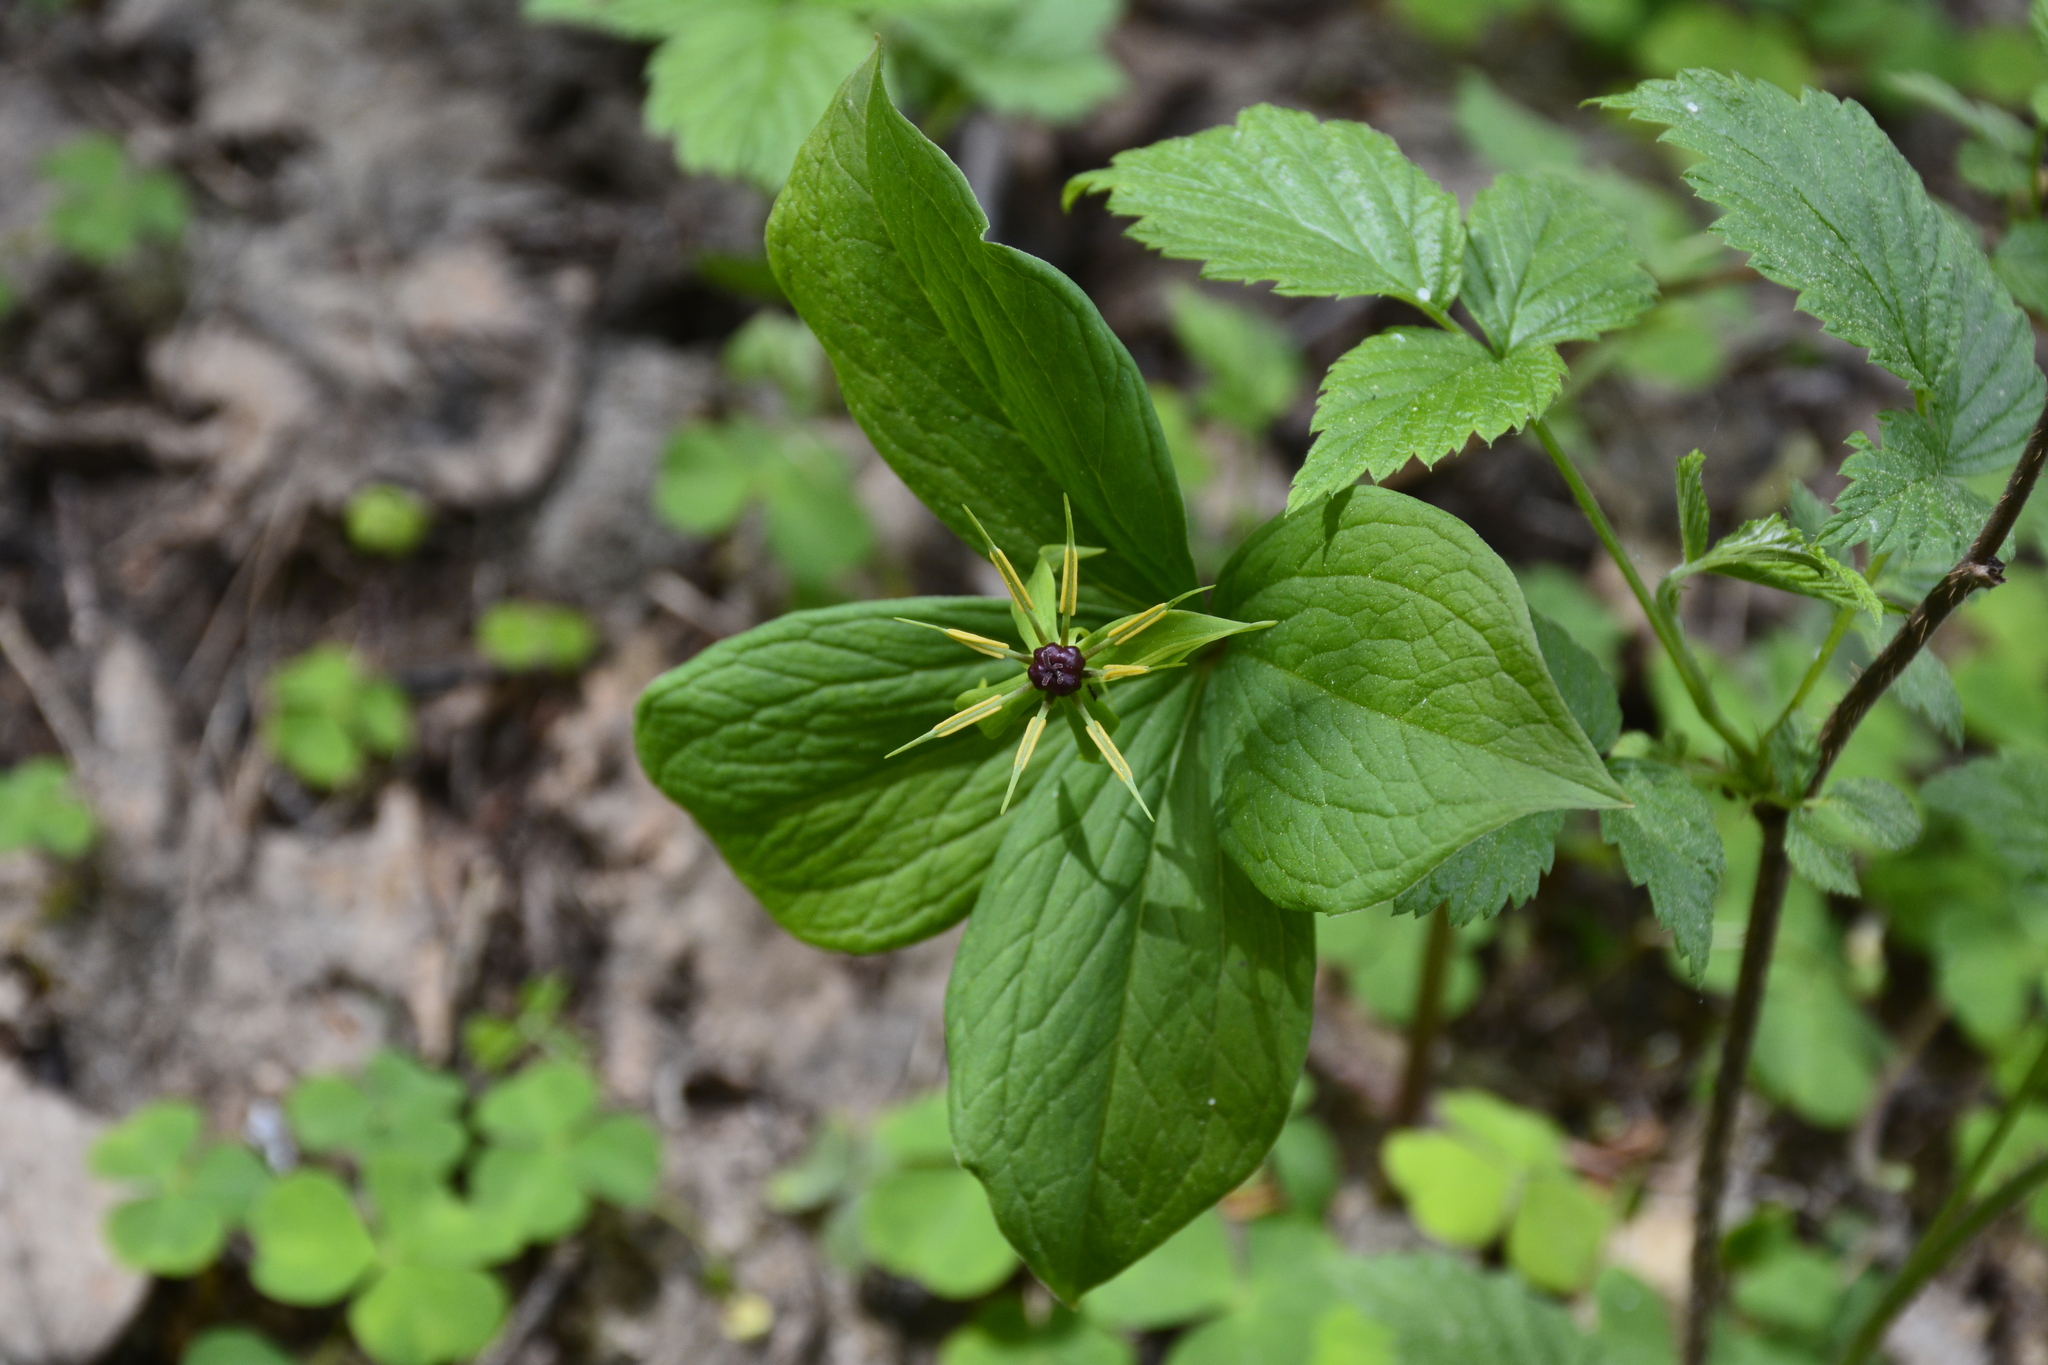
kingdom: Plantae
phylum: Tracheophyta
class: Liliopsida
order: Liliales
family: Melanthiaceae
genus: Paris
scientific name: Paris quadrifolia
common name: Herb-paris
